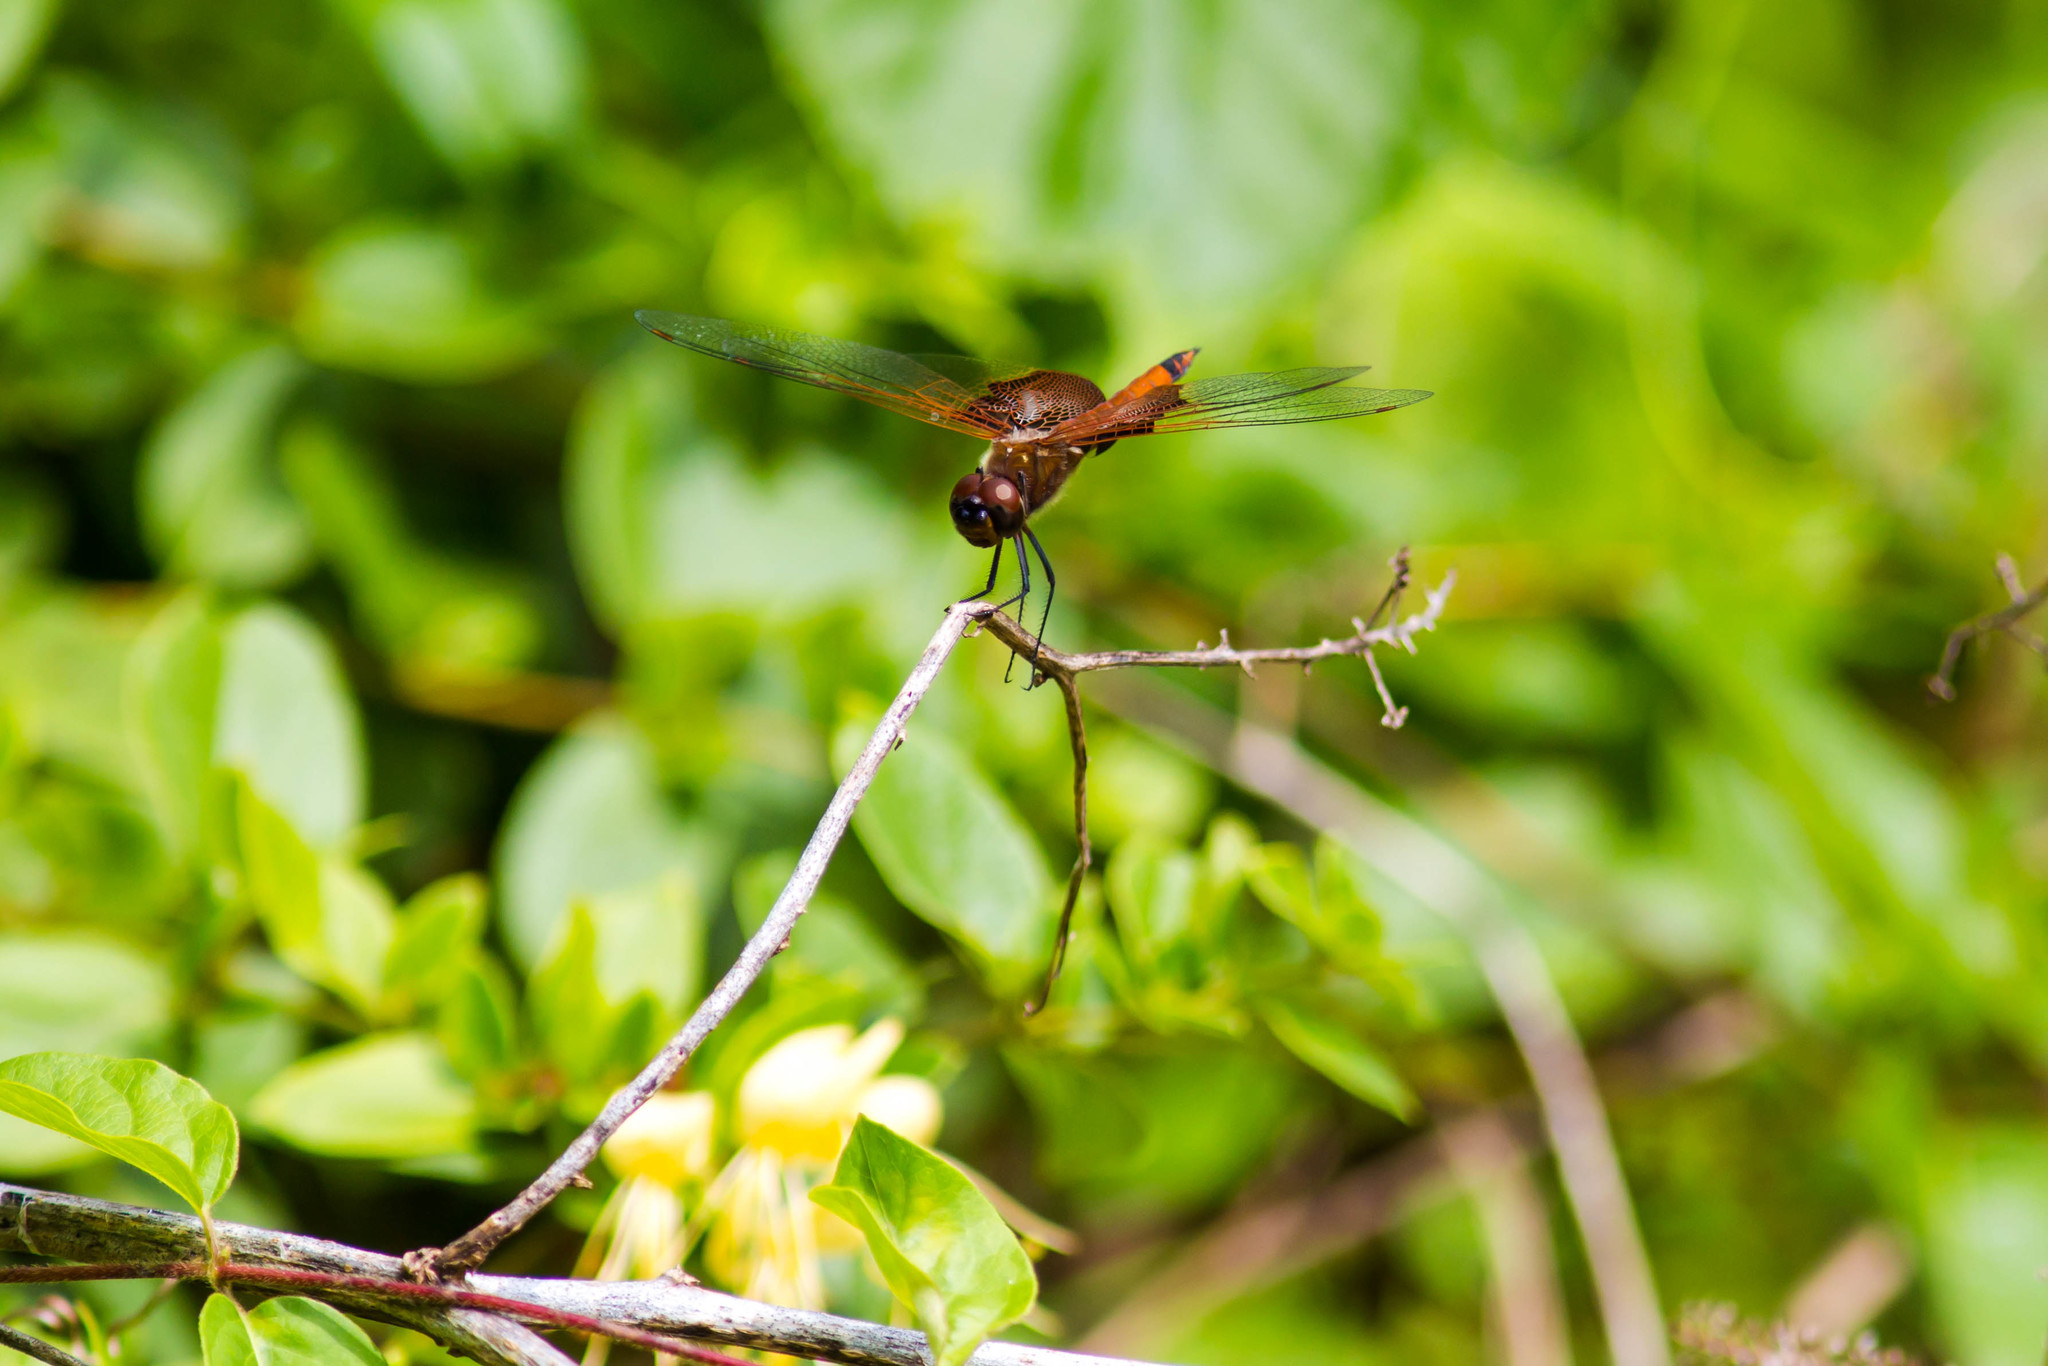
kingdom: Animalia
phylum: Arthropoda
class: Insecta
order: Odonata
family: Libellulidae
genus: Tramea
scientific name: Tramea carolina
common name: Carolina saddlebags
